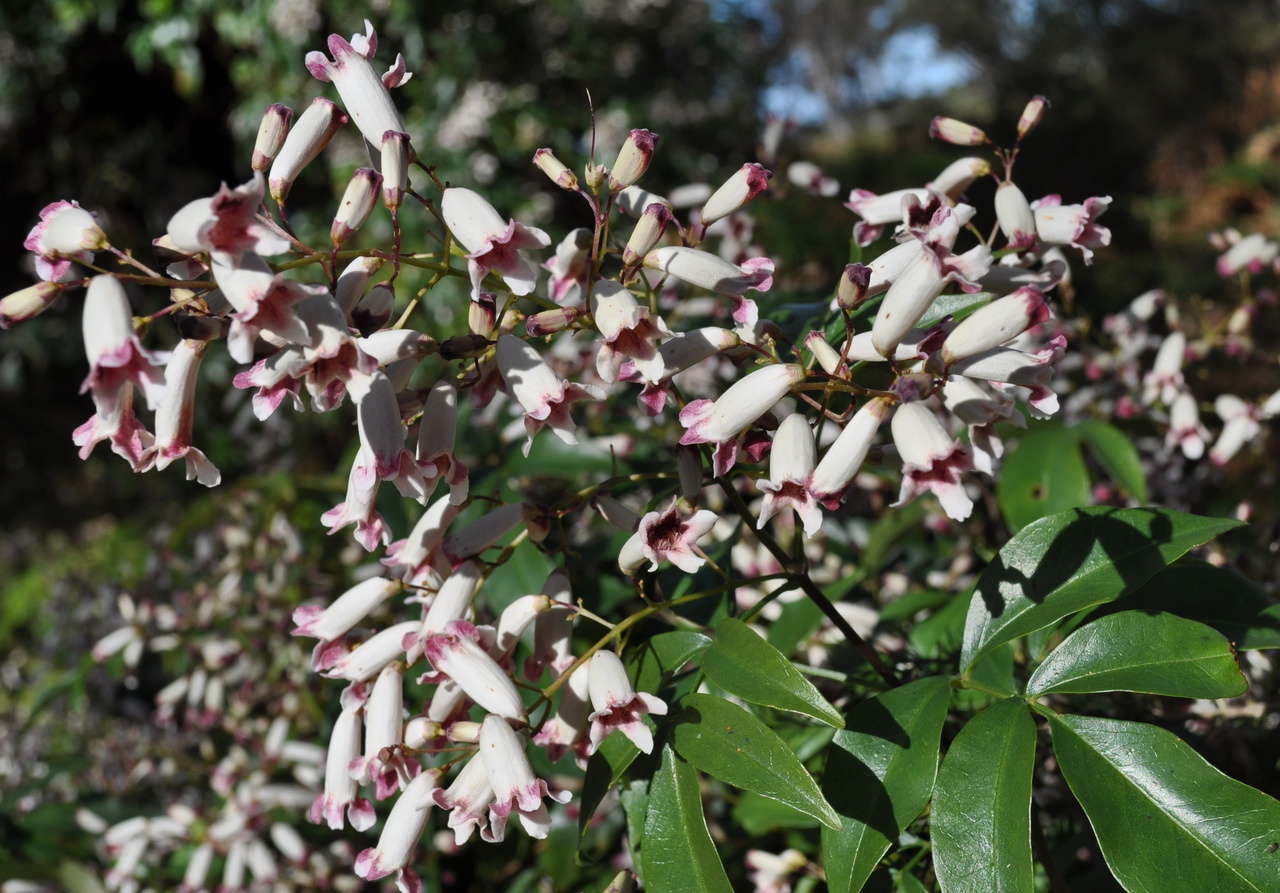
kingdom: Plantae
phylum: Tracheophyta
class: Magnoliopsida
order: Lamiales
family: Bignoniaceae
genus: Pandorea
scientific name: Pandorea pandorana
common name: Wonga-wonga-vine
